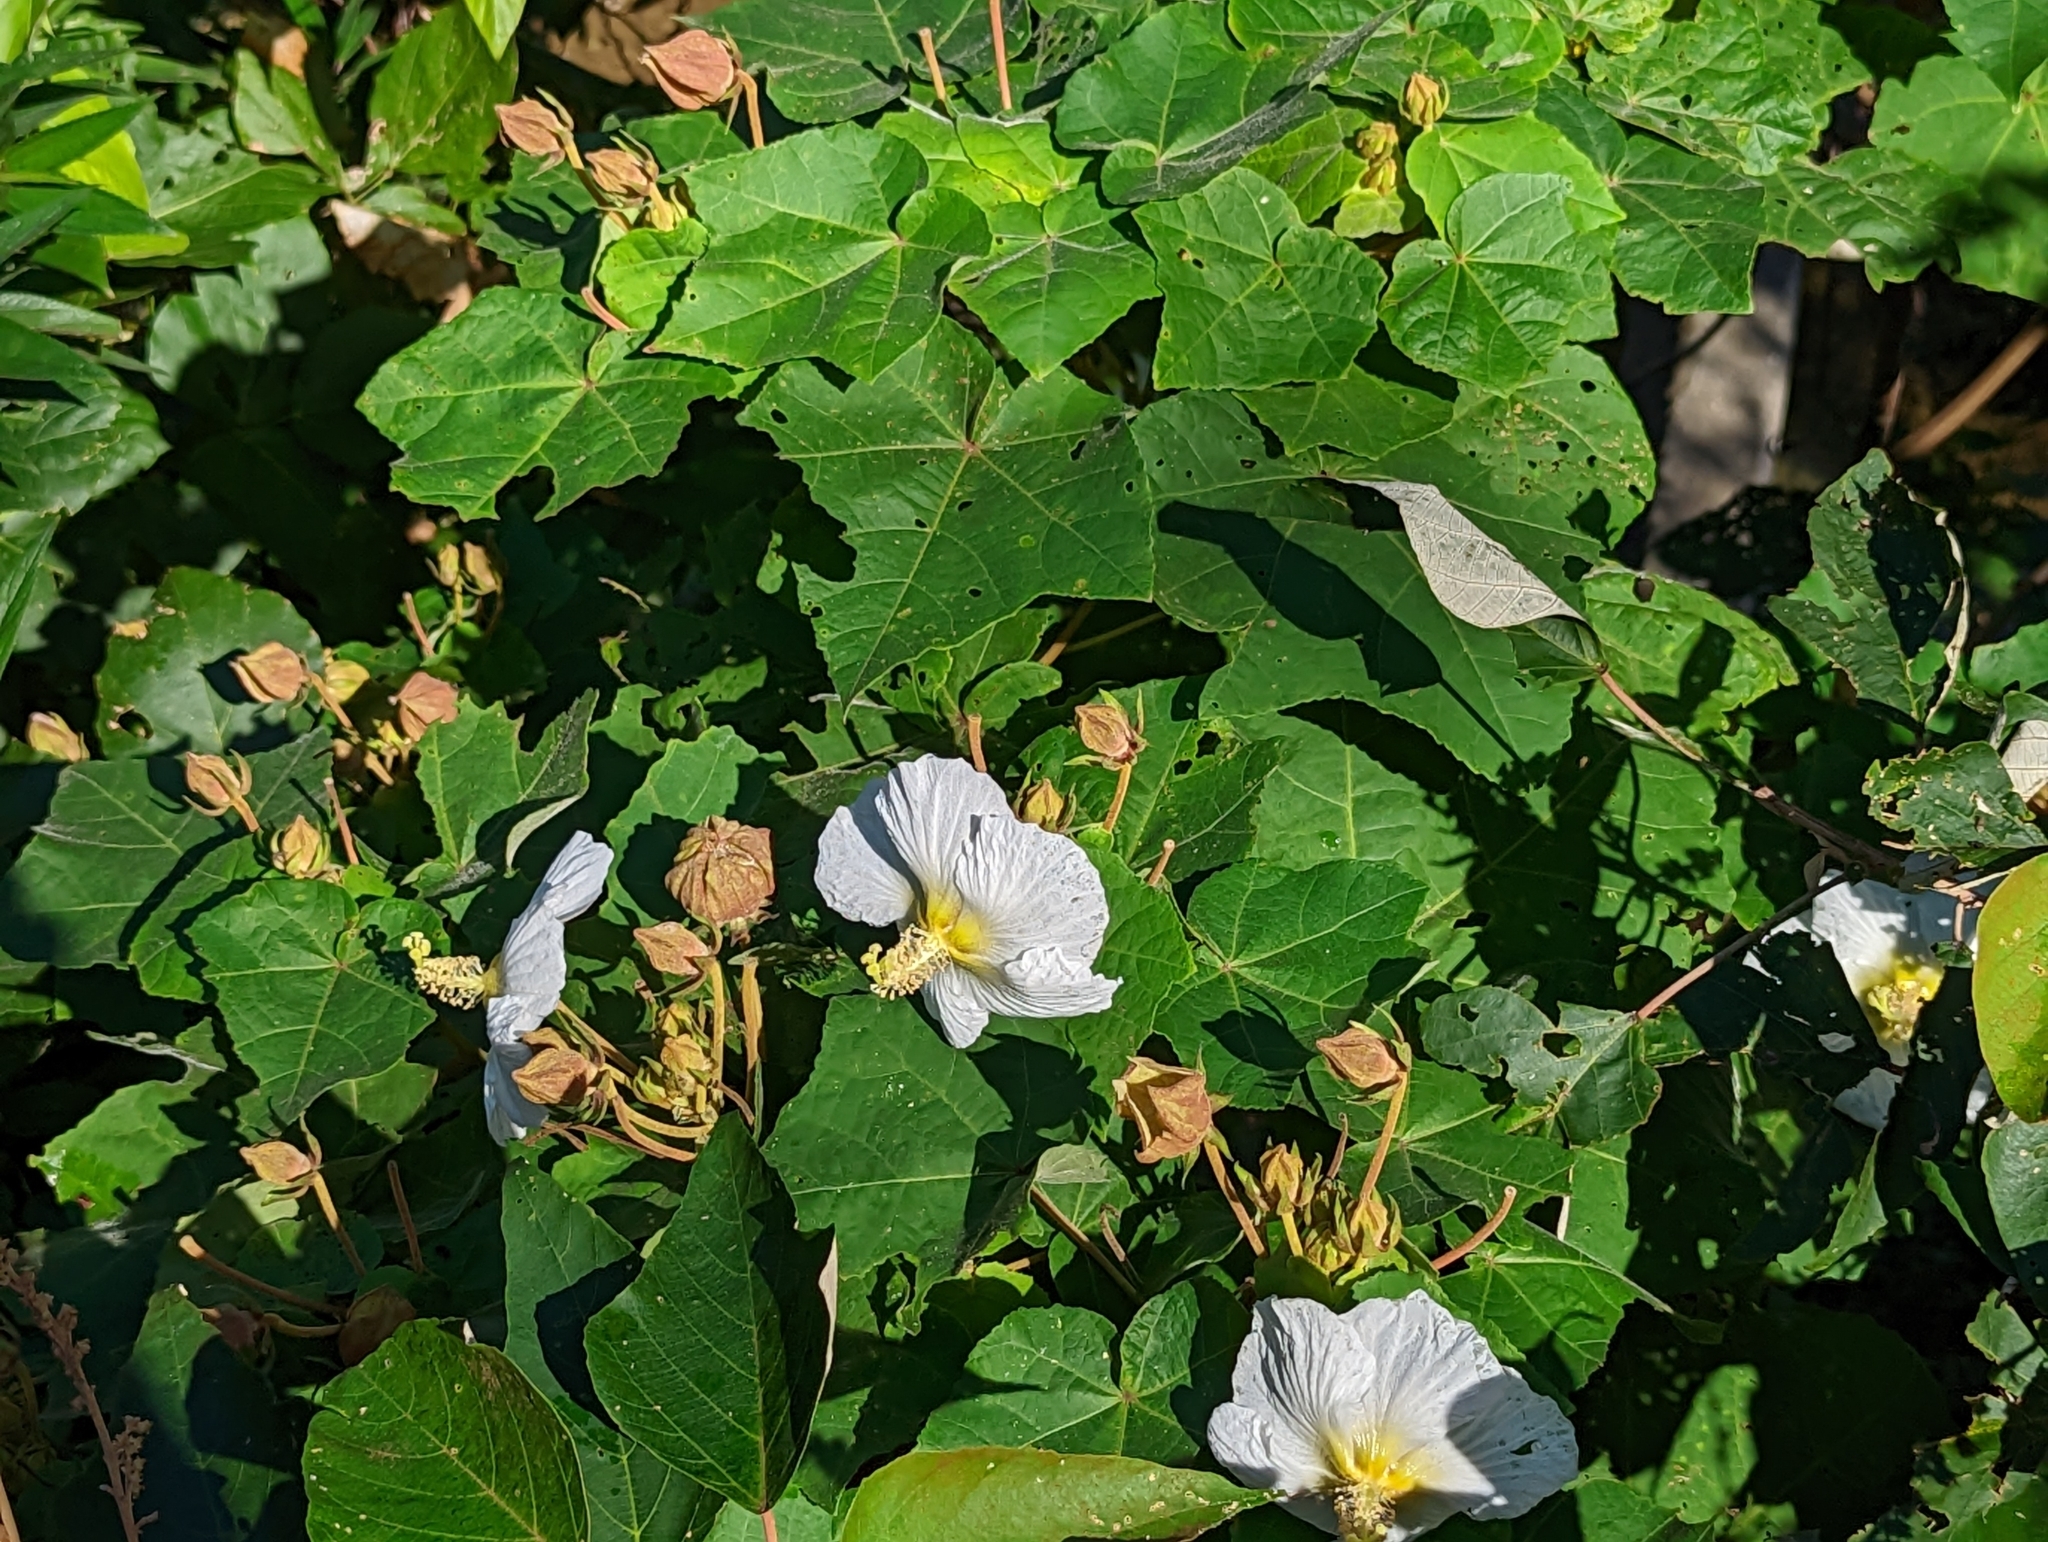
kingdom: Plantae
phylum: Tracheophyta
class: Magnoliopsida
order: Malvales
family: Malvaceae
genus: Hibiscus
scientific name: Hibiscus taiwanensis
